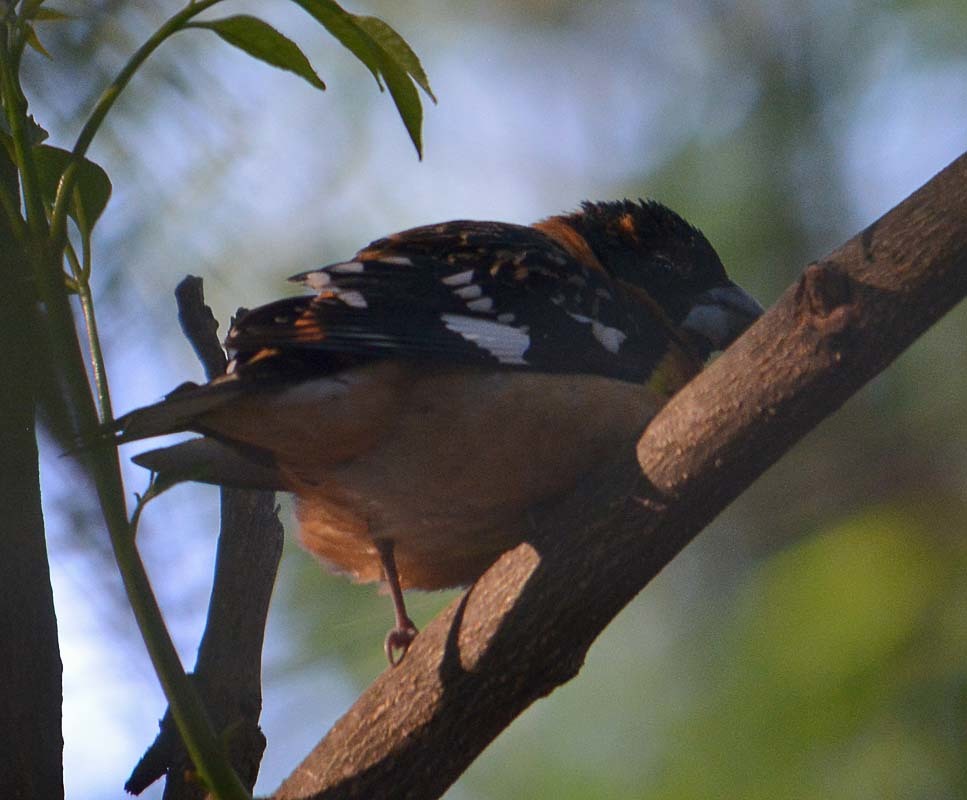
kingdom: Animalia
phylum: Chordata
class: Aves
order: Passeriformes
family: Cardinalidae
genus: Pheucticus
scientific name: Pheucticus melanocephalus
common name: Black-headed grosbeak
